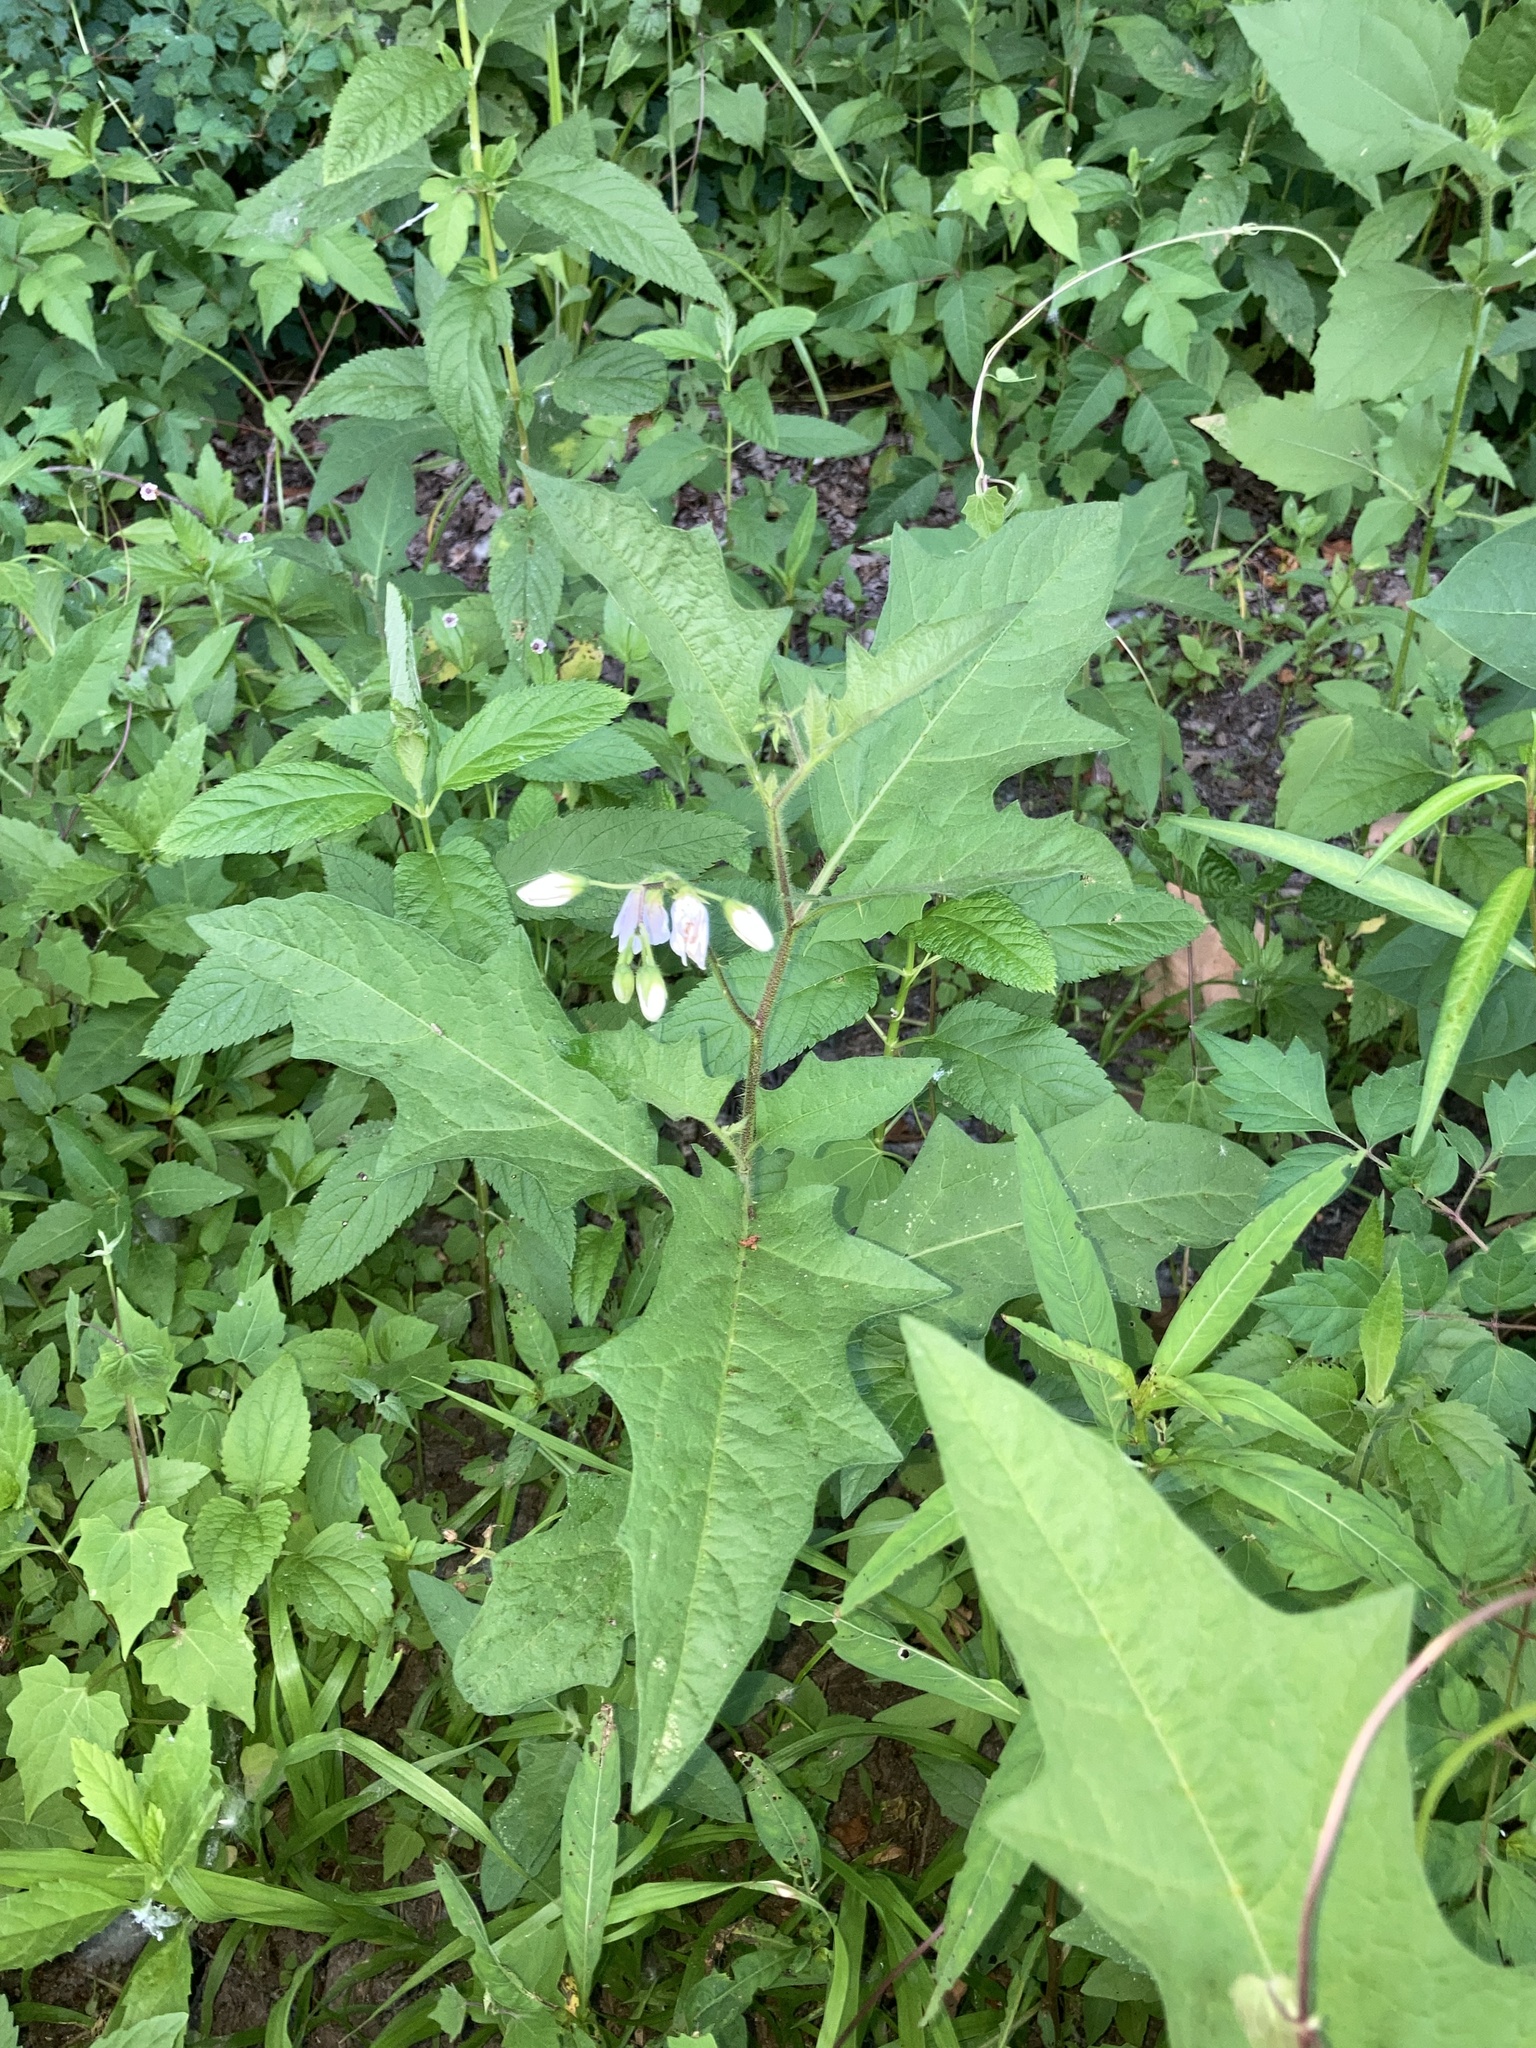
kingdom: Plantae
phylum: Tracheophyta
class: Magnoliopsida
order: Solanales
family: Solanaceae
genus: Solanum
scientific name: Solanum carolinense
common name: Horse-nettle
